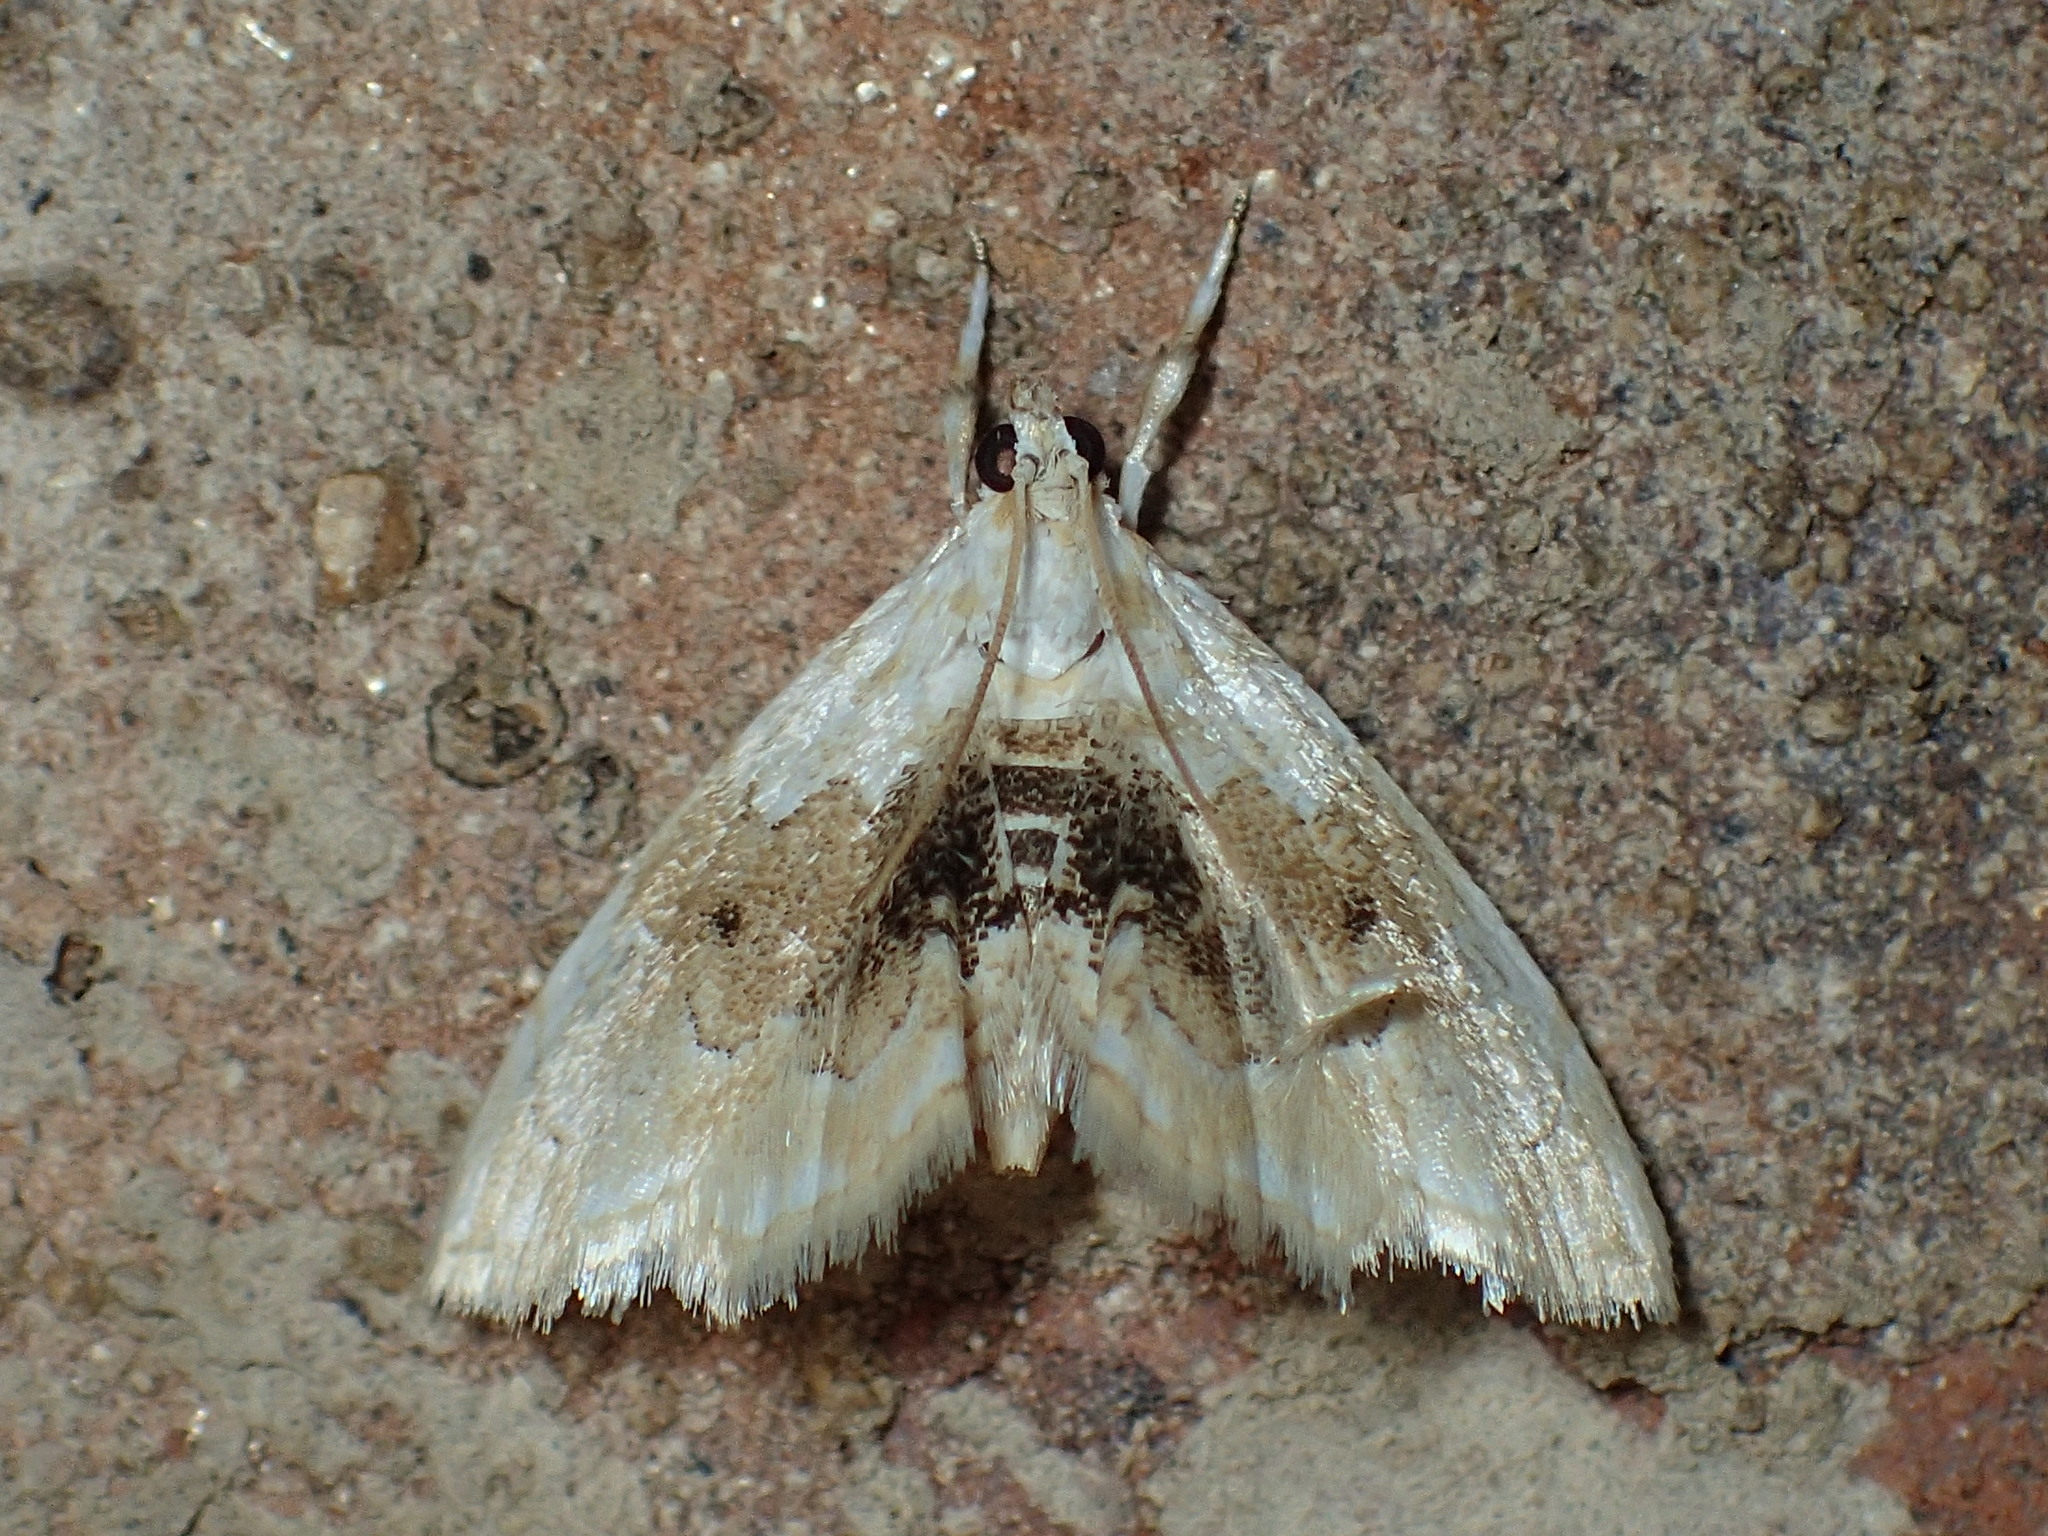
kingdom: Animalia
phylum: Arthropoda
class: Insecta
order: Lepidoptera
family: Crambidae
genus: Lipocosma
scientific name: Lipocosma sicalis
